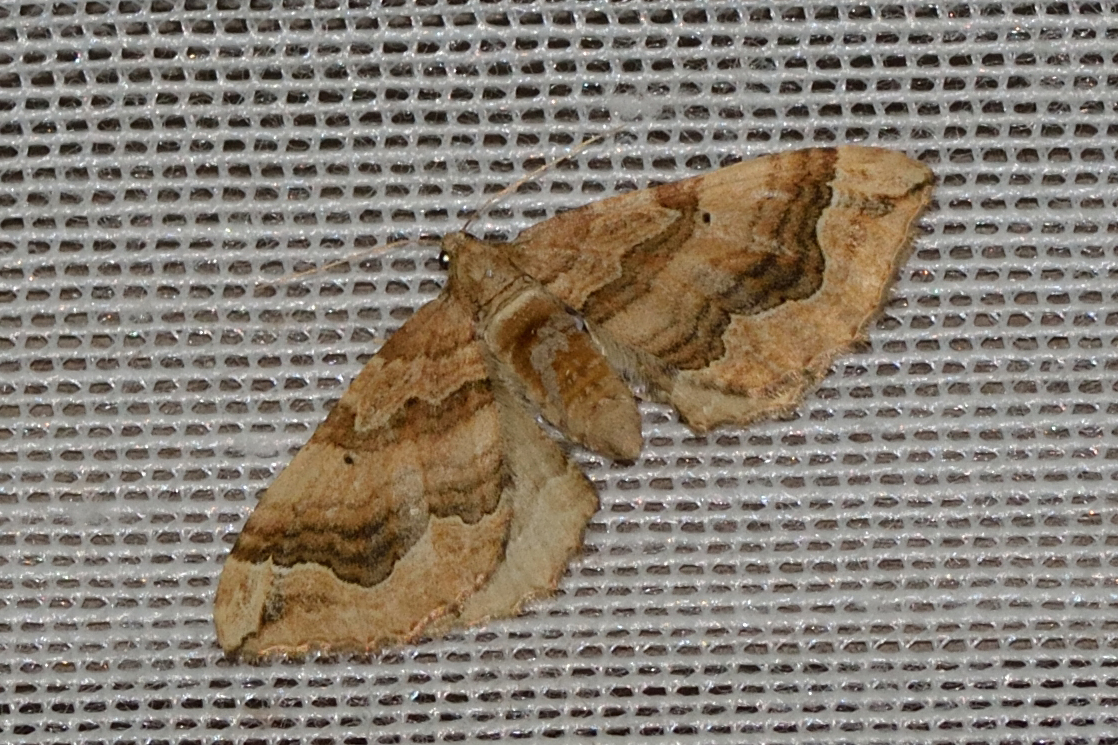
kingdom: Animalia
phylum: Arthropoda
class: Insecta
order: Lepidoptera
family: Geometridae
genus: Pelurga
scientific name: Pelurga comitata
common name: Dark spinach
